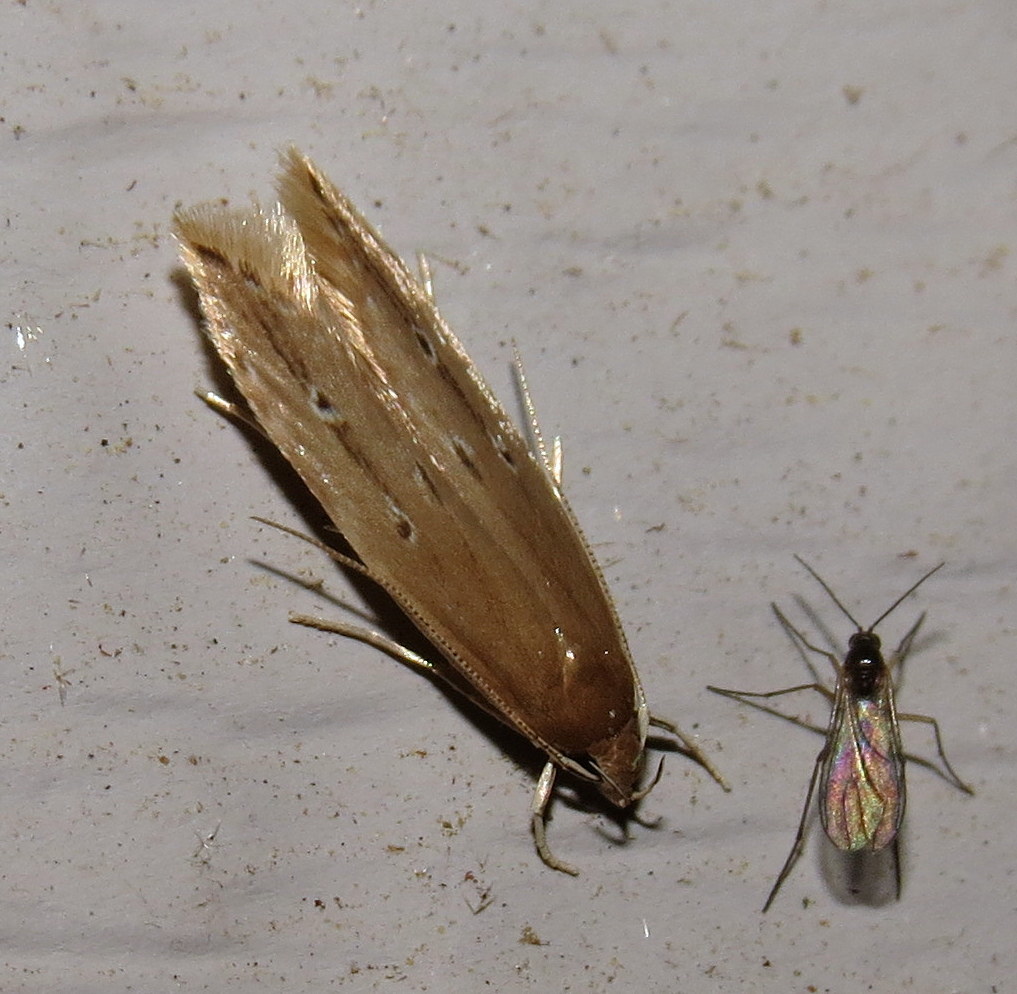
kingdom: Animalia
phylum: Arthropoda
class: Insecta
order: Lepidoptera
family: Cosmopterigidae
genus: Limnaecia
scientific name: Limnaecia phragmitella
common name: Bulrush cosmet
